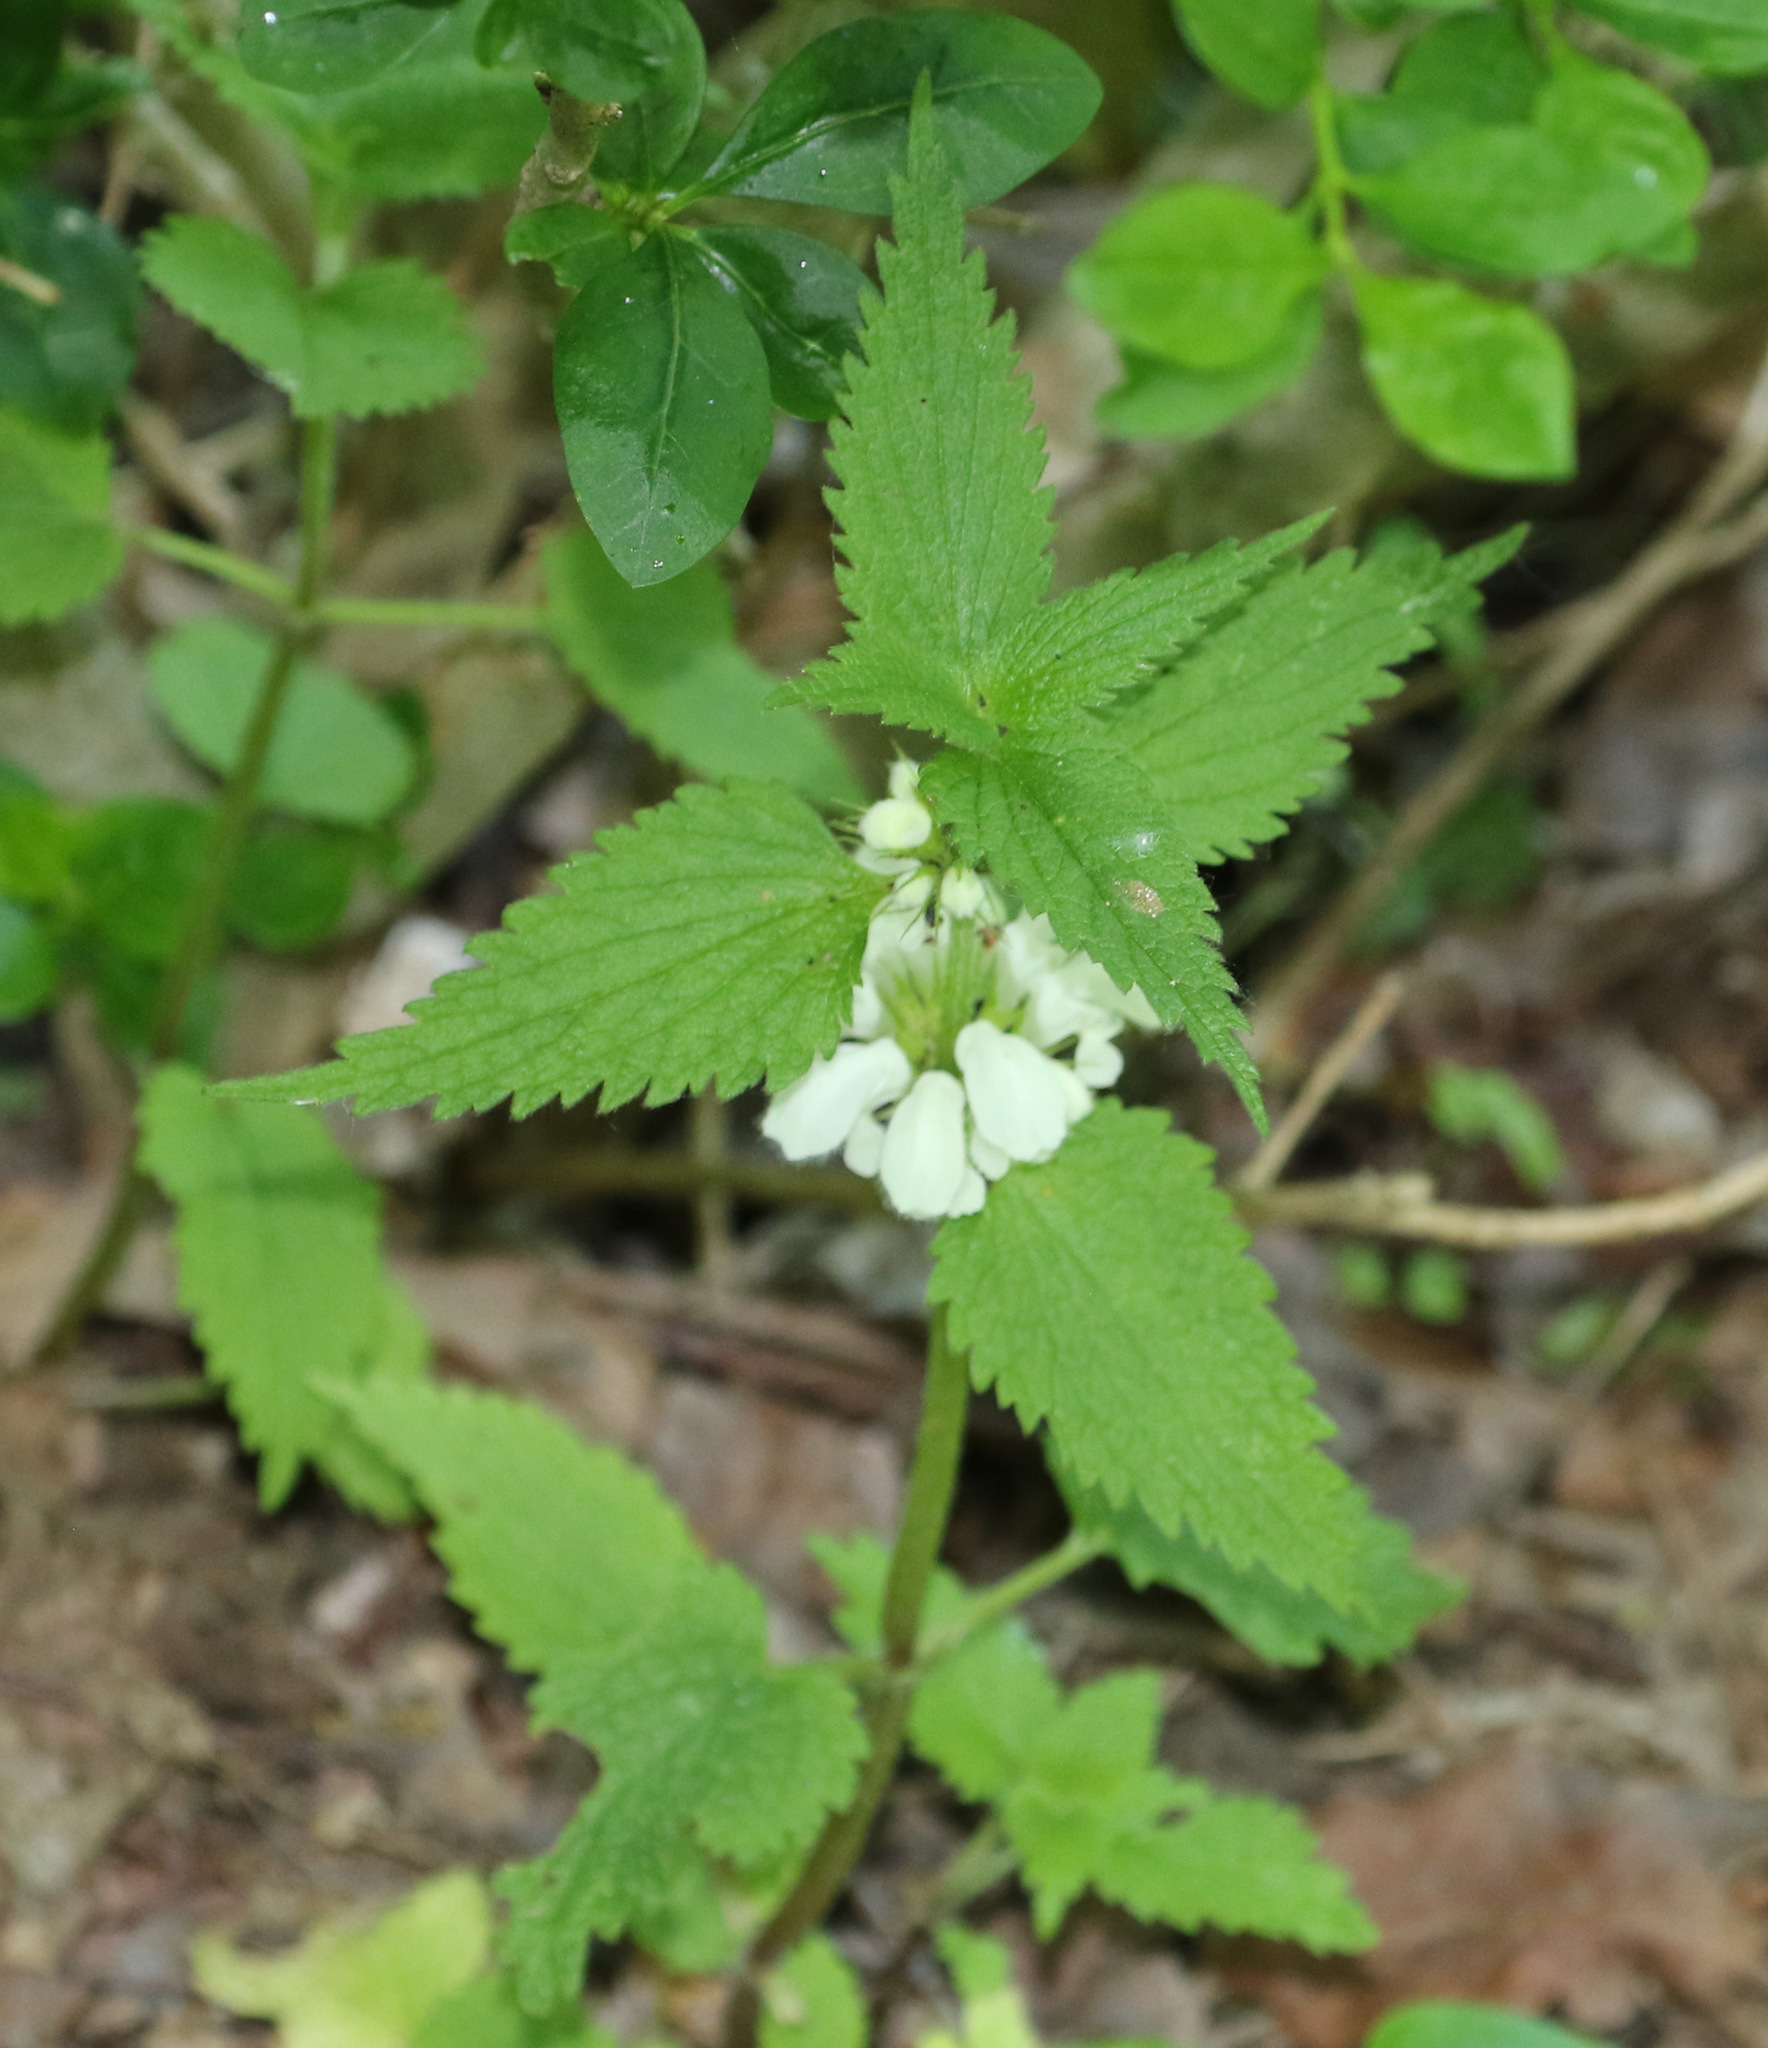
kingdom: Plantae
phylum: Tracheophyta
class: Magnoliopsida
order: Lamiales
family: Lamiaceae
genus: Lamium
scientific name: Lamium album
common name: White dead-nettle
